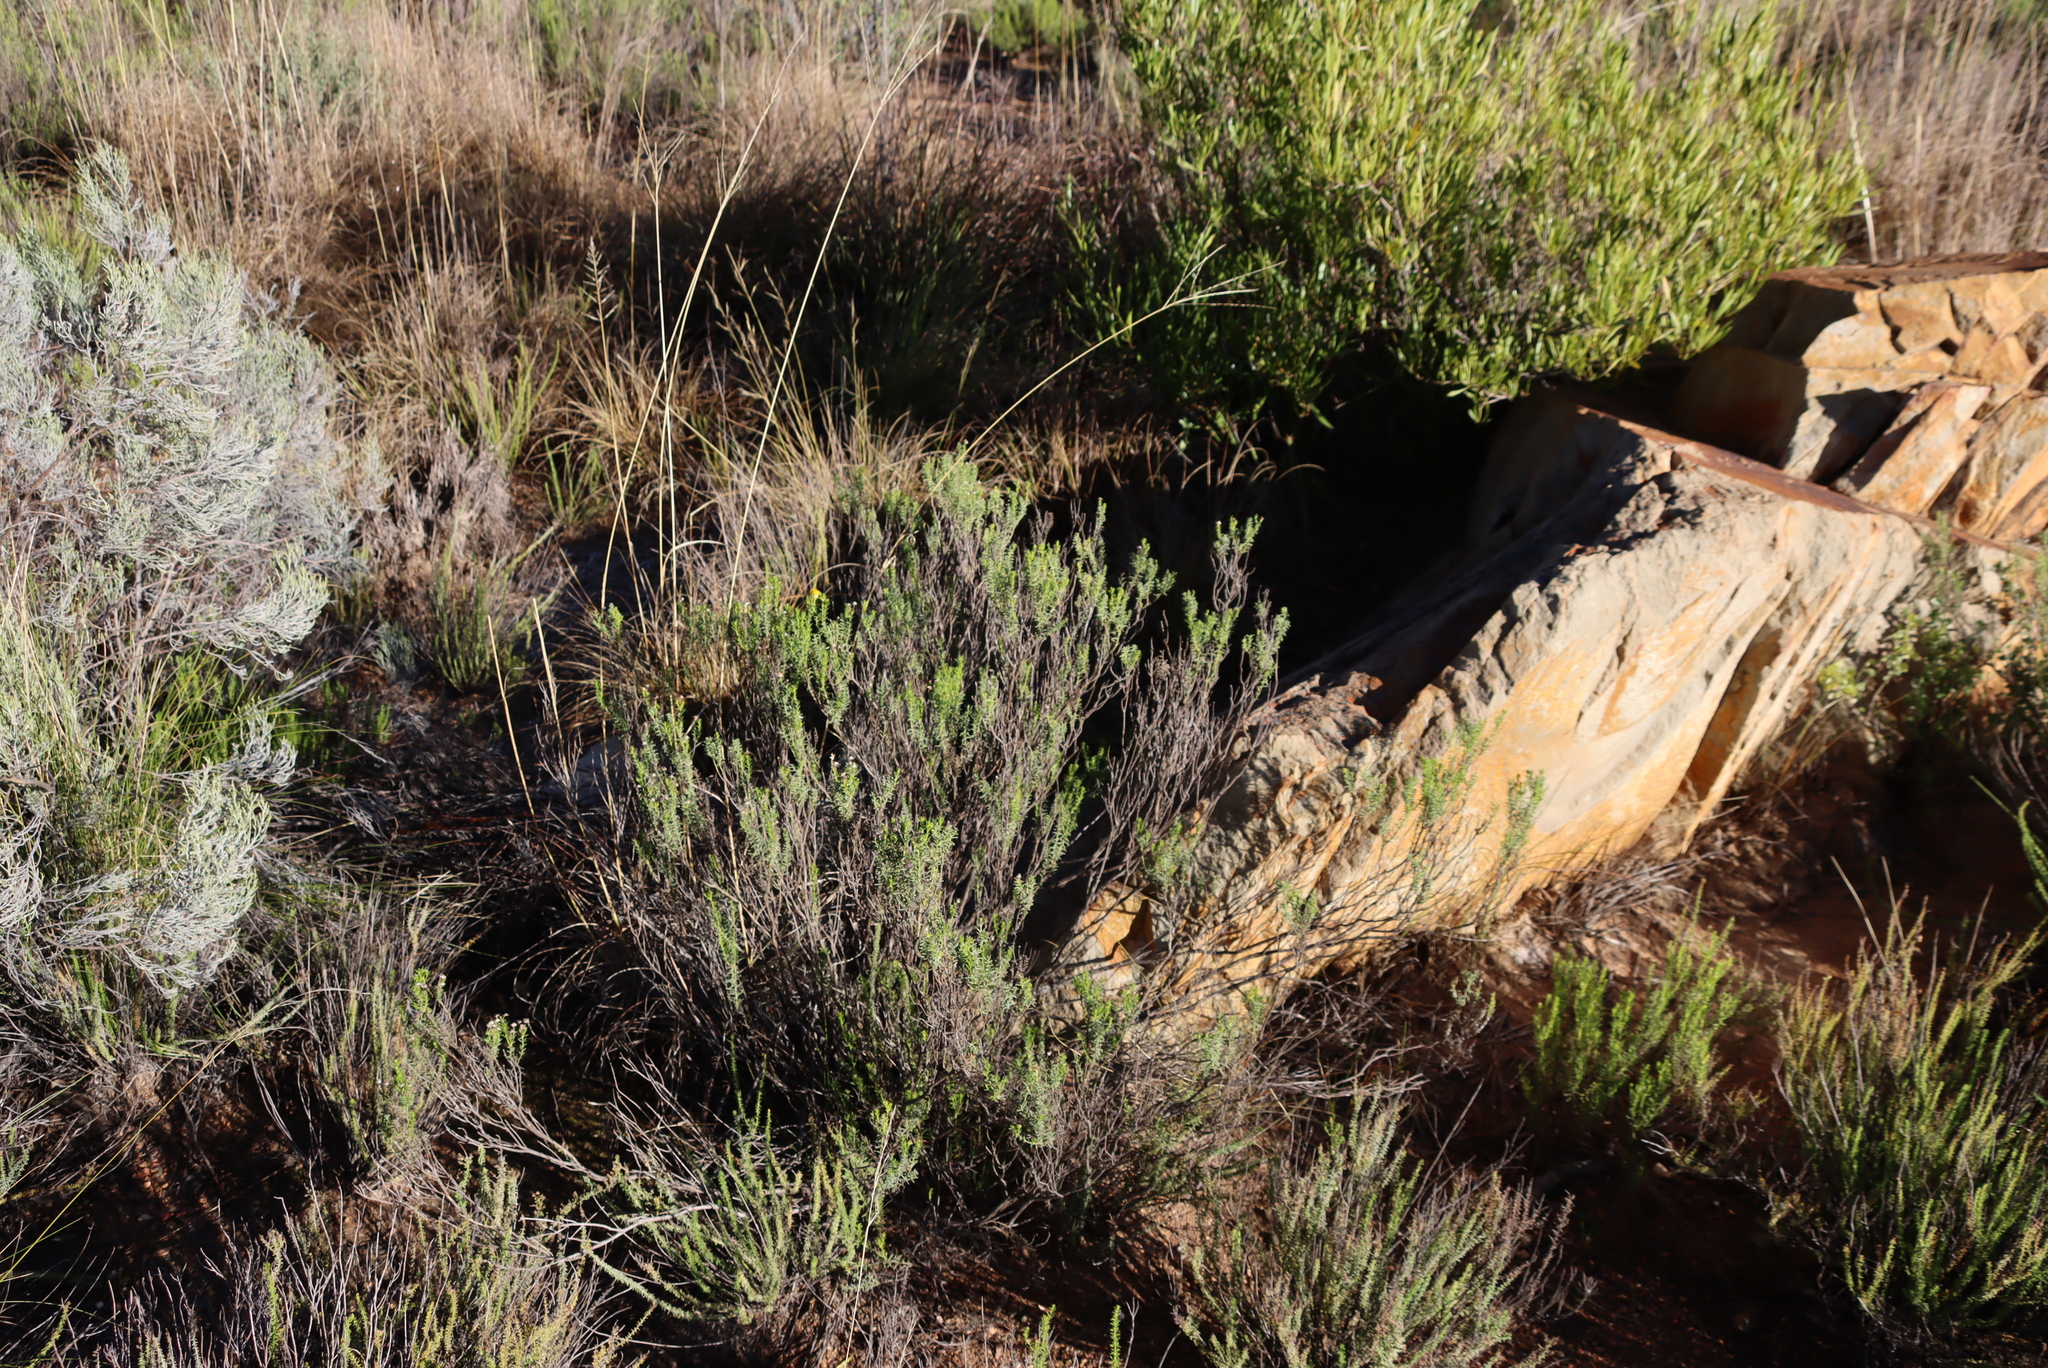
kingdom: Plantae
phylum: Tracheophyta
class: Magnoliopsida
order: Asterales
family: Asteraceae
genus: Chrysocoma
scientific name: Chrysocoma ciliata
